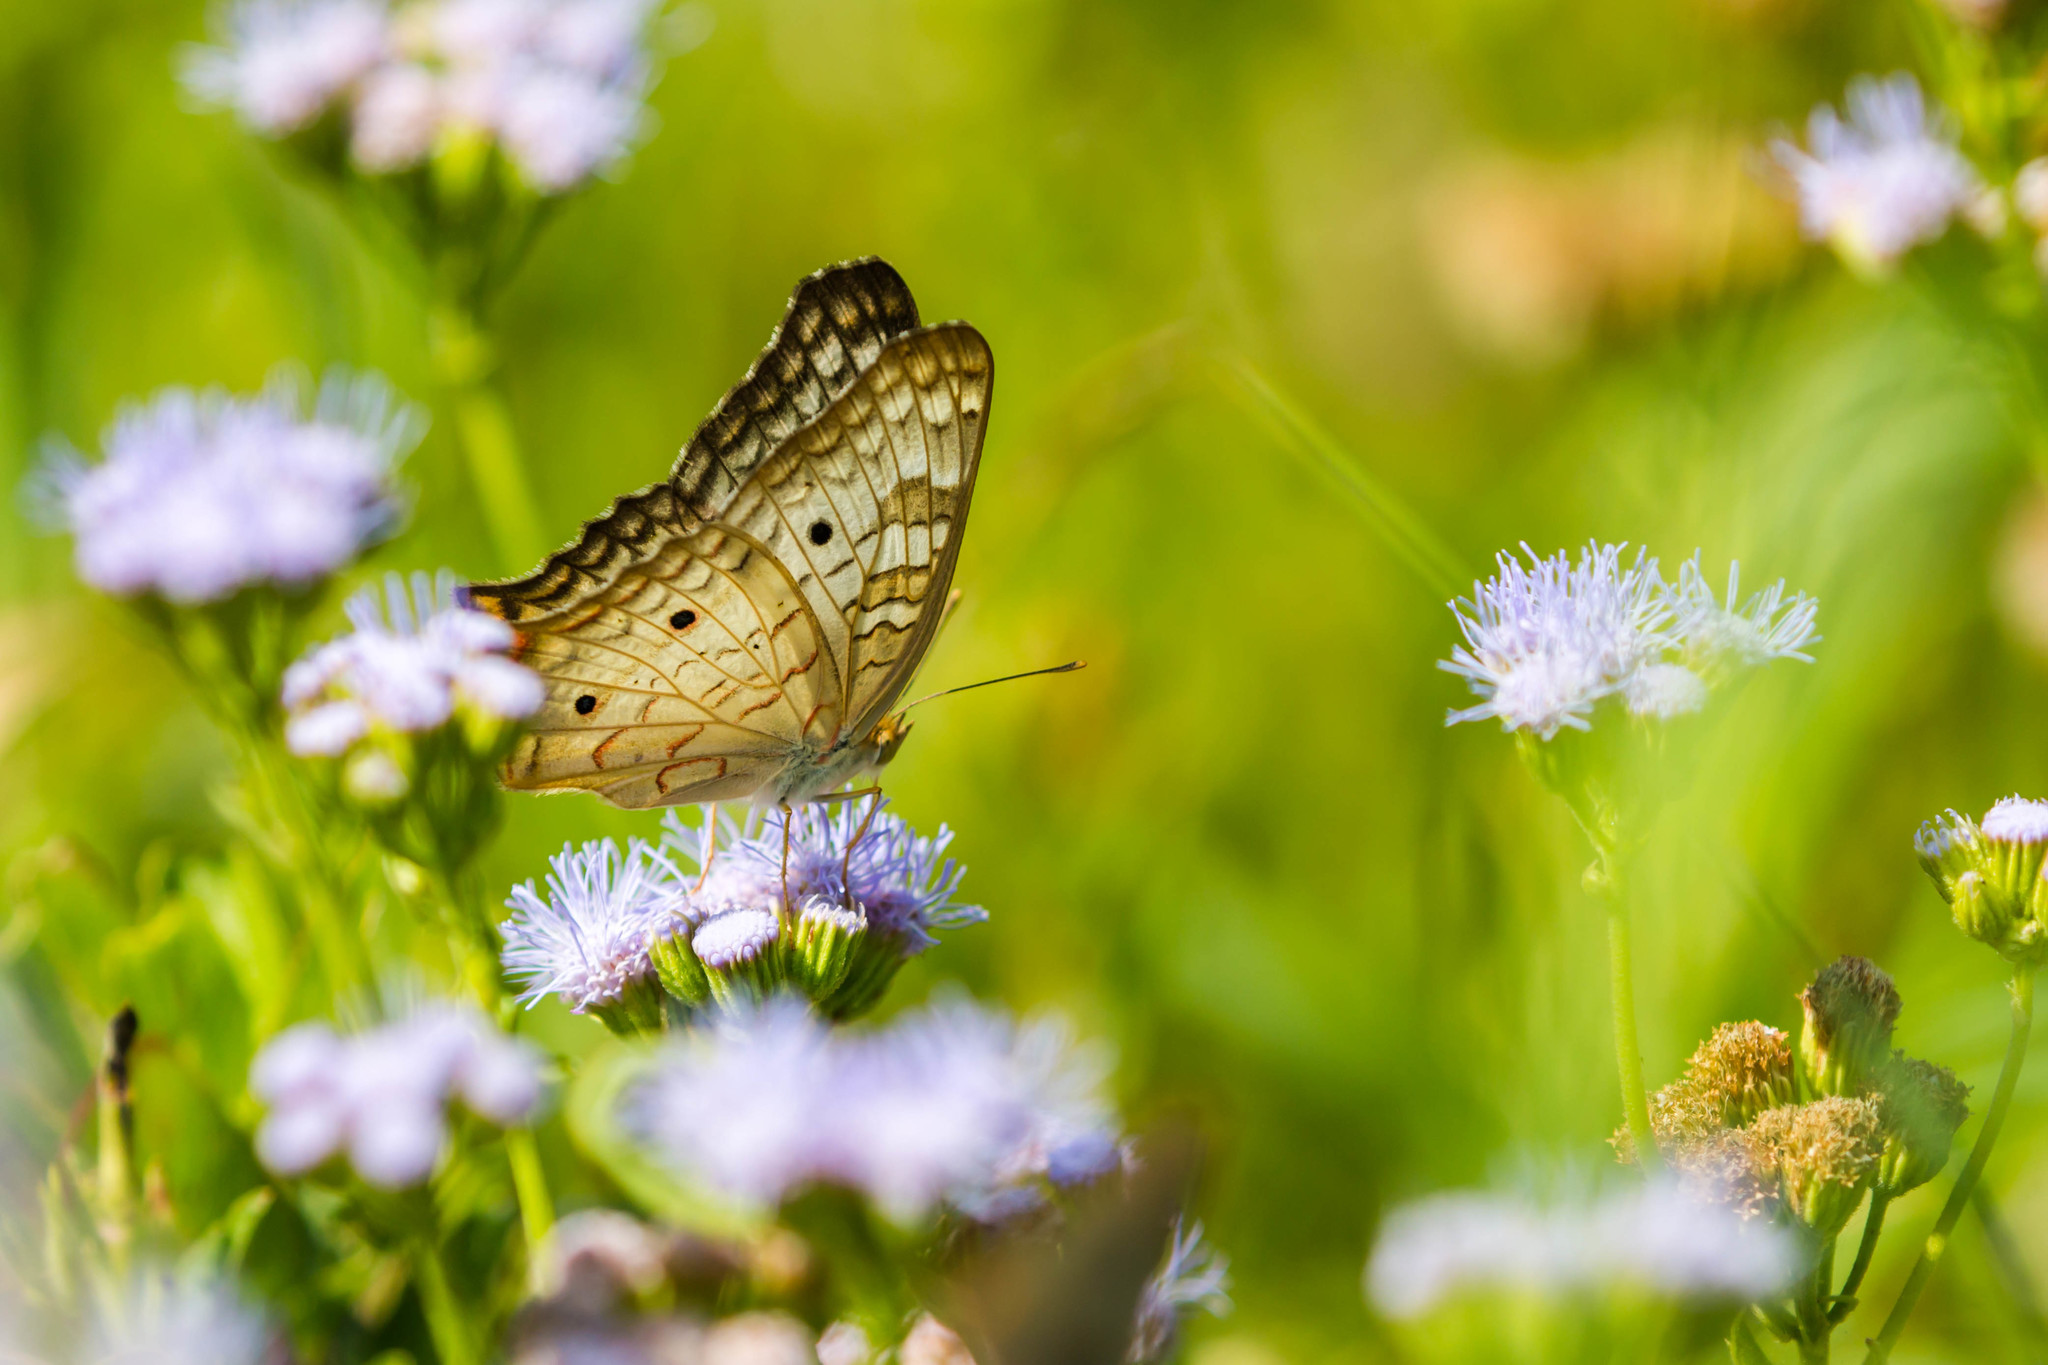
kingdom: Animalia
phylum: Arthropoda
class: Insecta
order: Lepidoptera
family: Nymphalidae
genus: Anartia
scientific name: Anartia jatrophae
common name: White peacock
